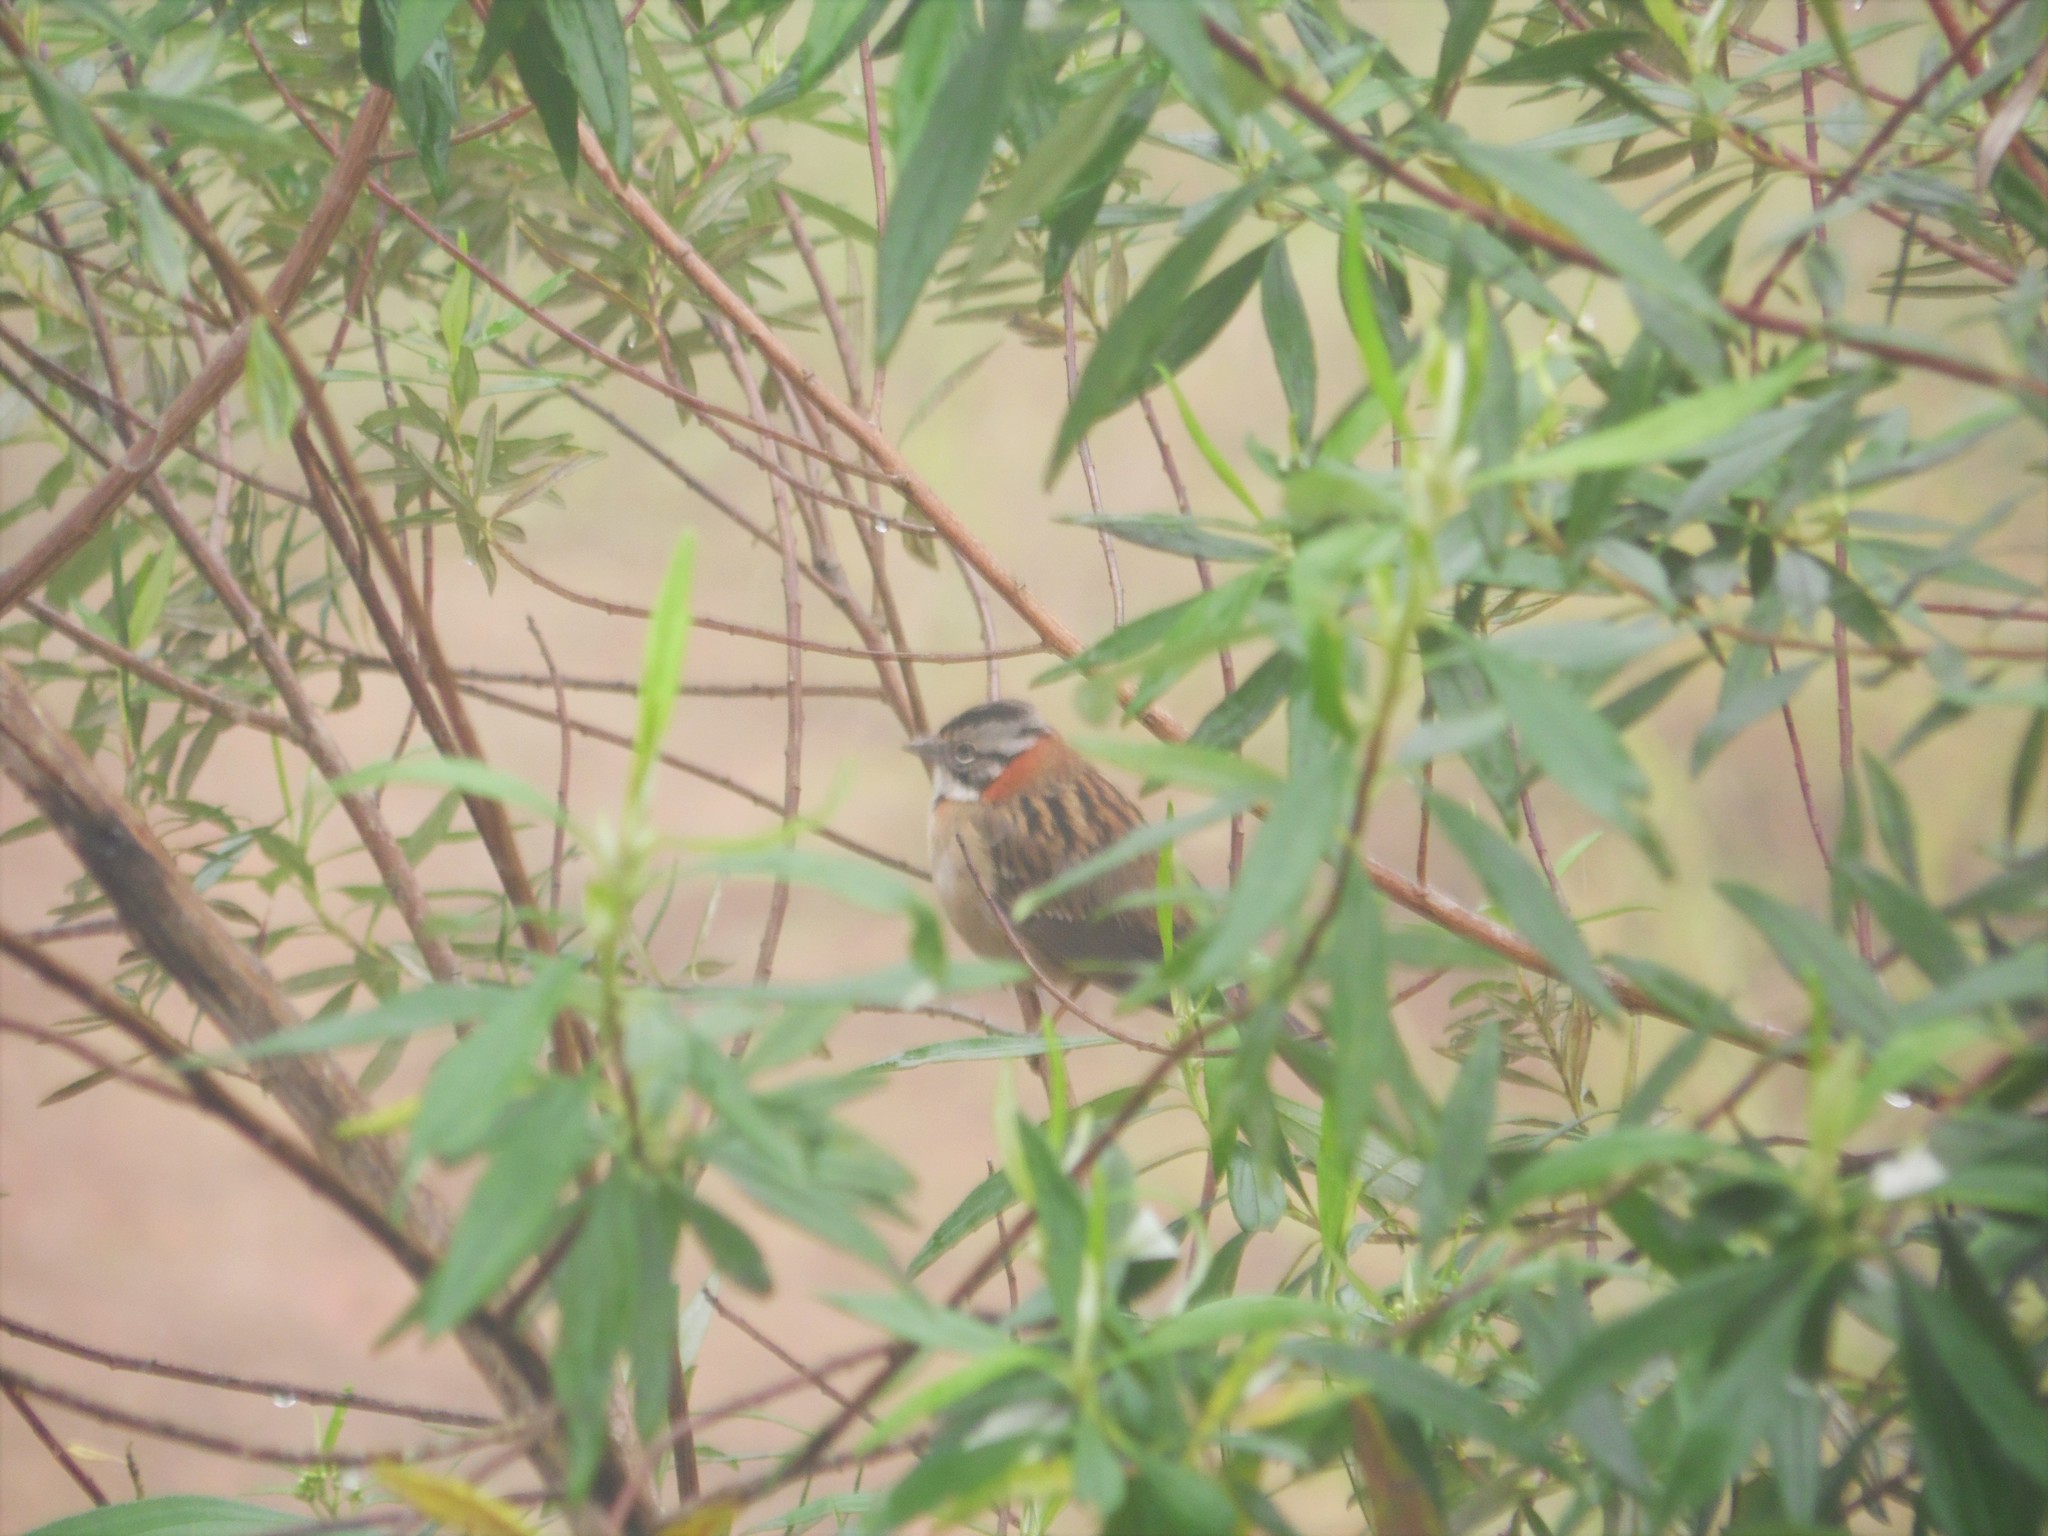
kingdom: Animalia
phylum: Chordata
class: Aves
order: Passeriformes
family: Passerellidae
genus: Zonotrichia
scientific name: Zonotrichia capensis
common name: Rufous-collared sparrow
